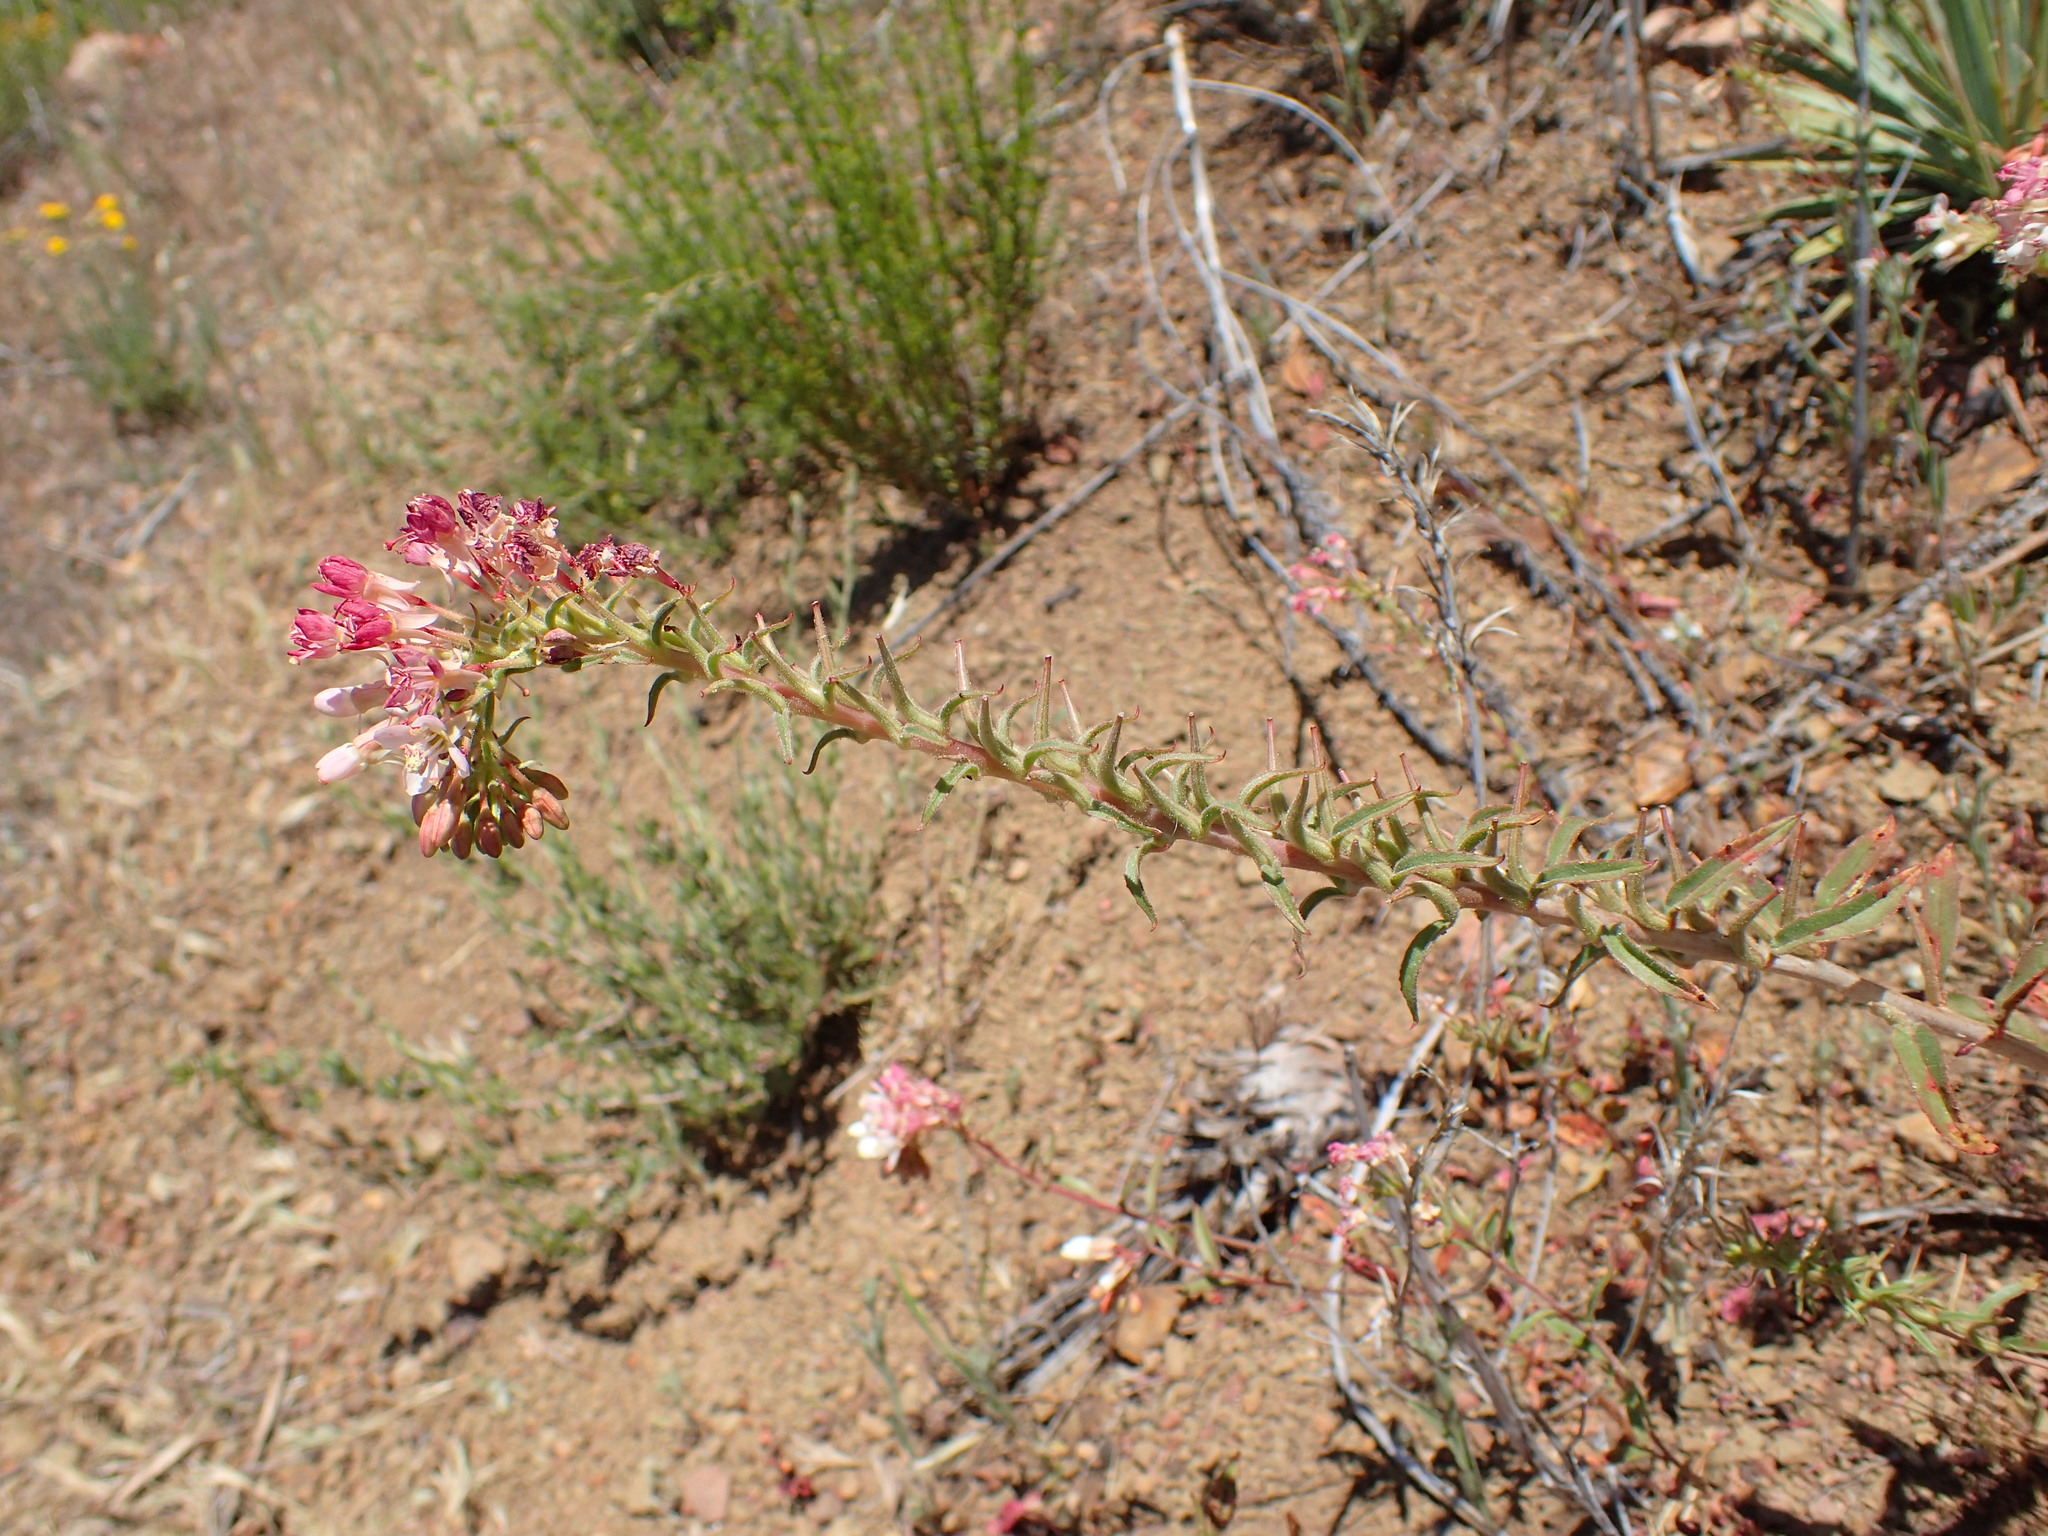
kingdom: Plantae
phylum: Tracheophyta
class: Magnoliopsida
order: Myrtales
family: Onagraceae
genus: Eremothera
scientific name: Eremothera boothii
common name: Booth's evening primrose
